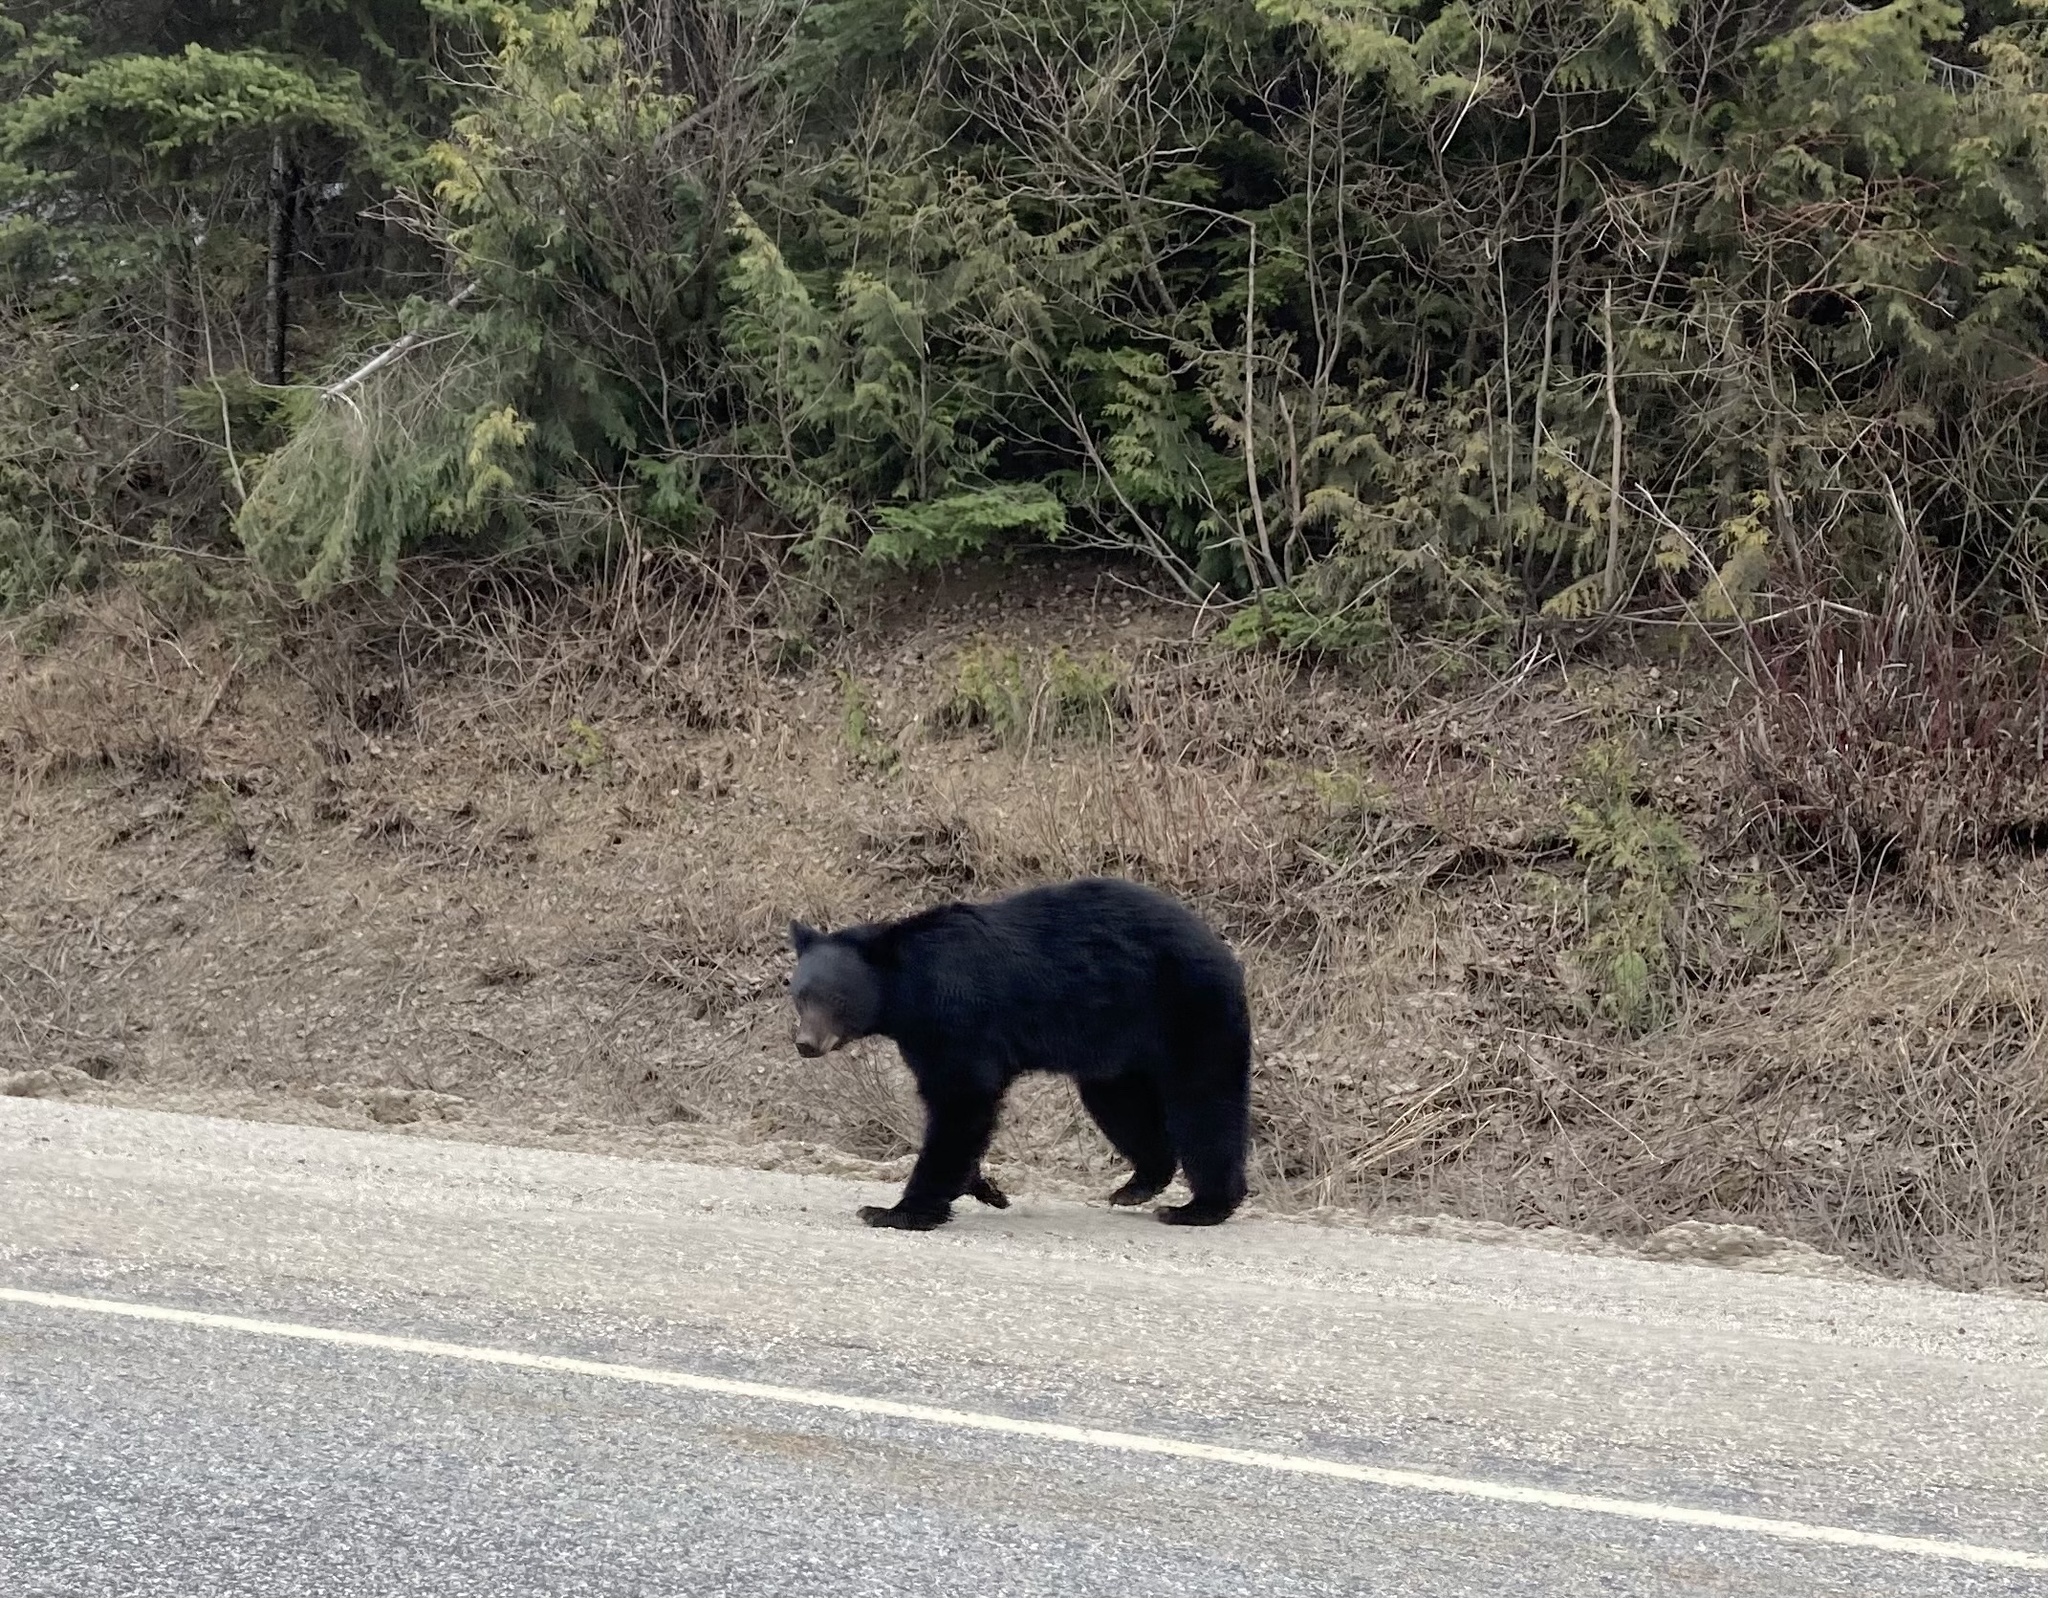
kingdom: Animalia
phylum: Chordata
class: Mammalia
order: Carnivora
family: Ursidae
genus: Ursus
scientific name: Ursus americanus
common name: American black bear
